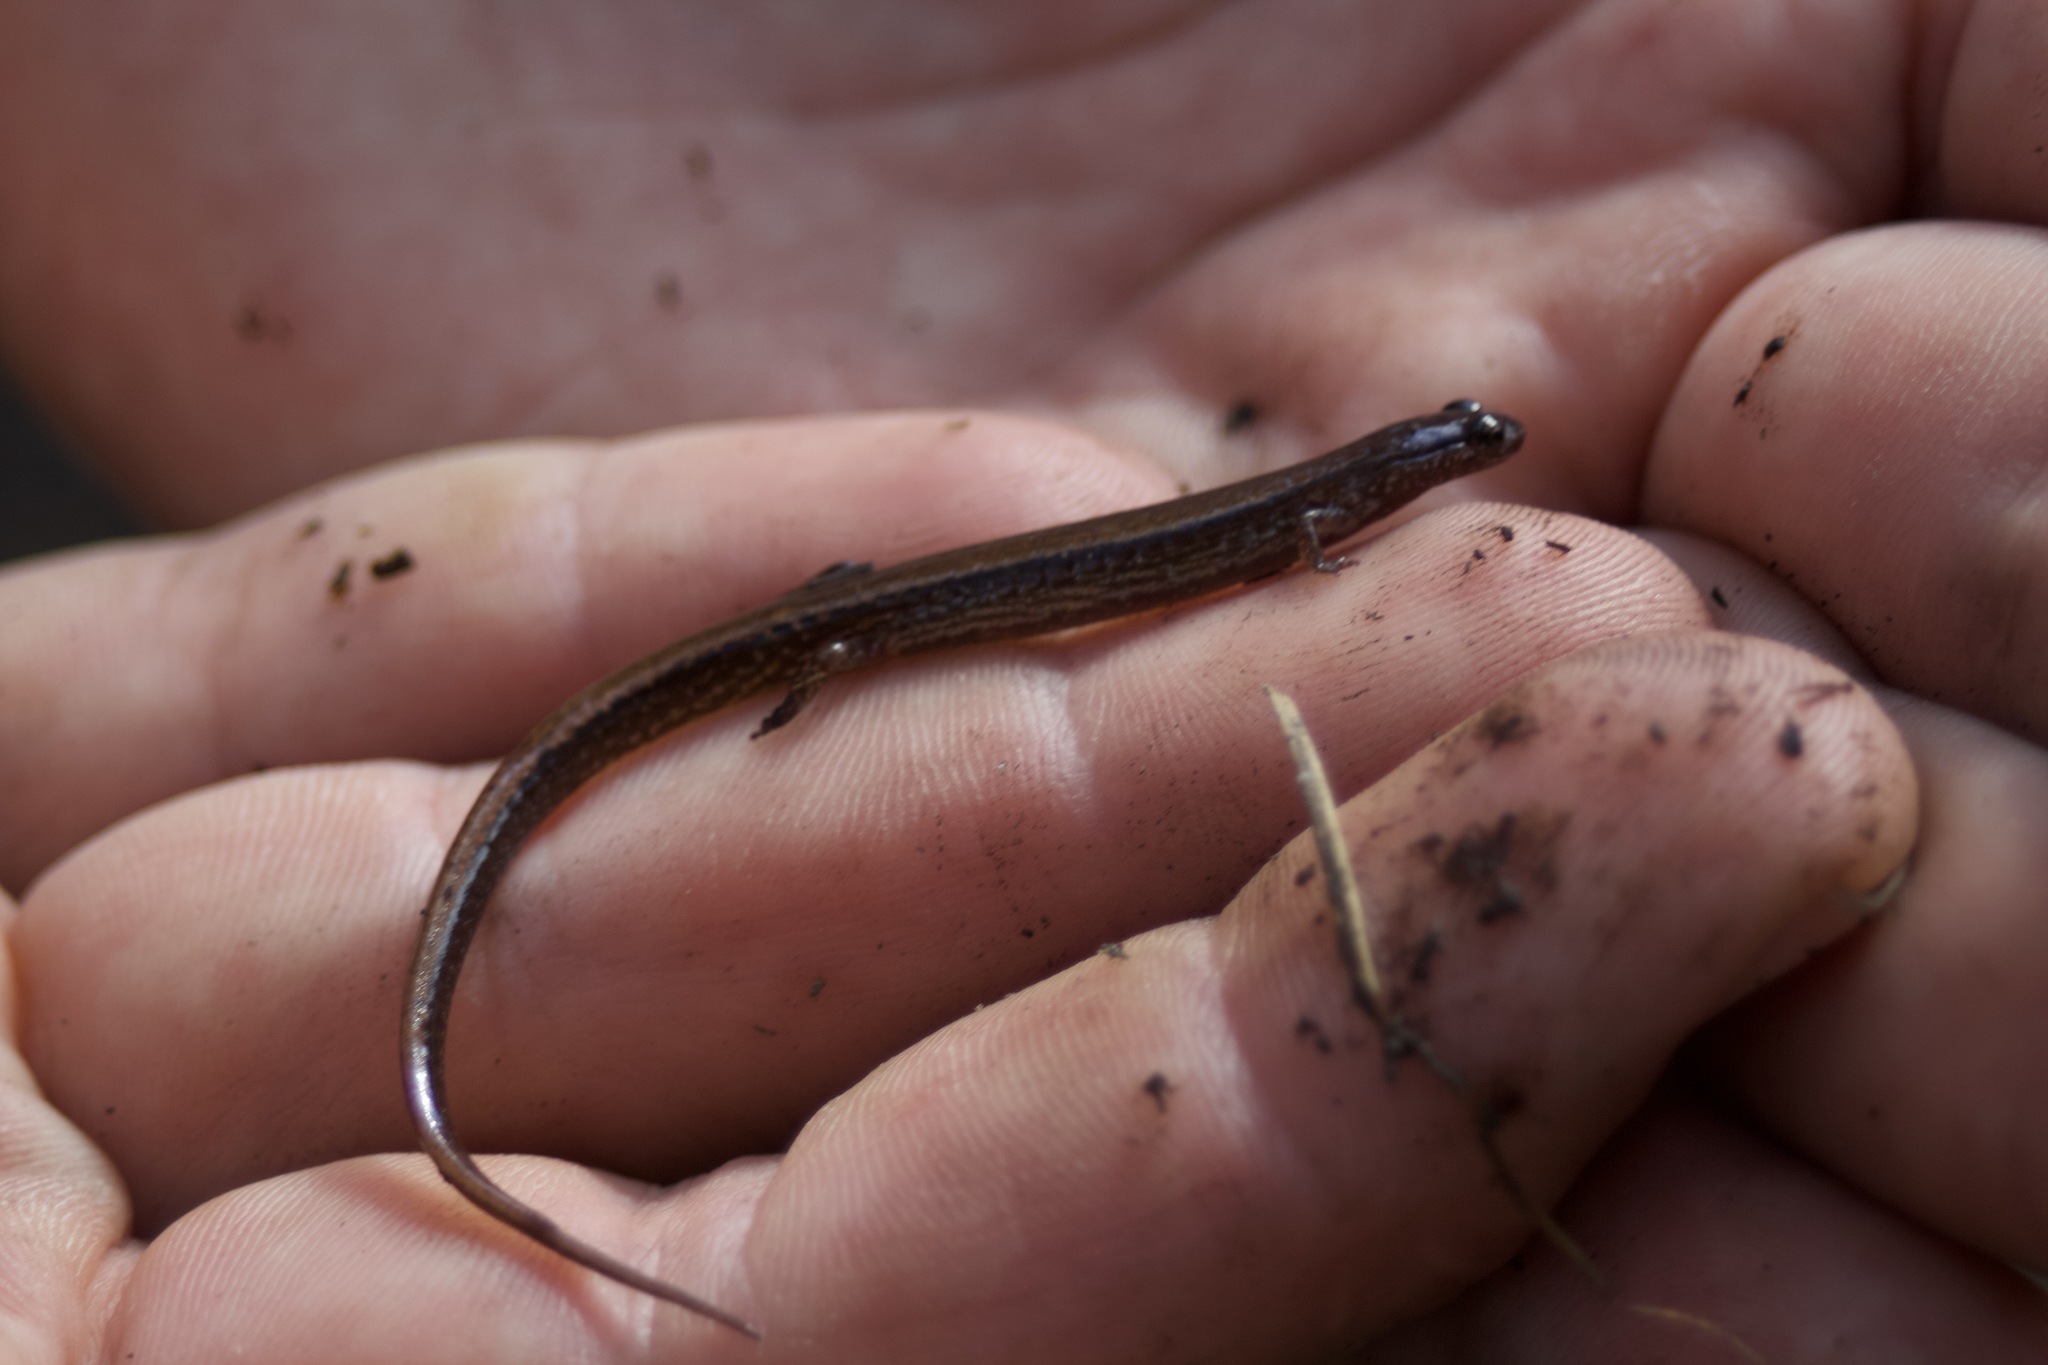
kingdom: Animalia
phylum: Chordata
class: Amphibia
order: Caudata
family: Plethodontidae
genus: Eurycea
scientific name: Eurycea quadridigitata
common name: Dwarf salamander
